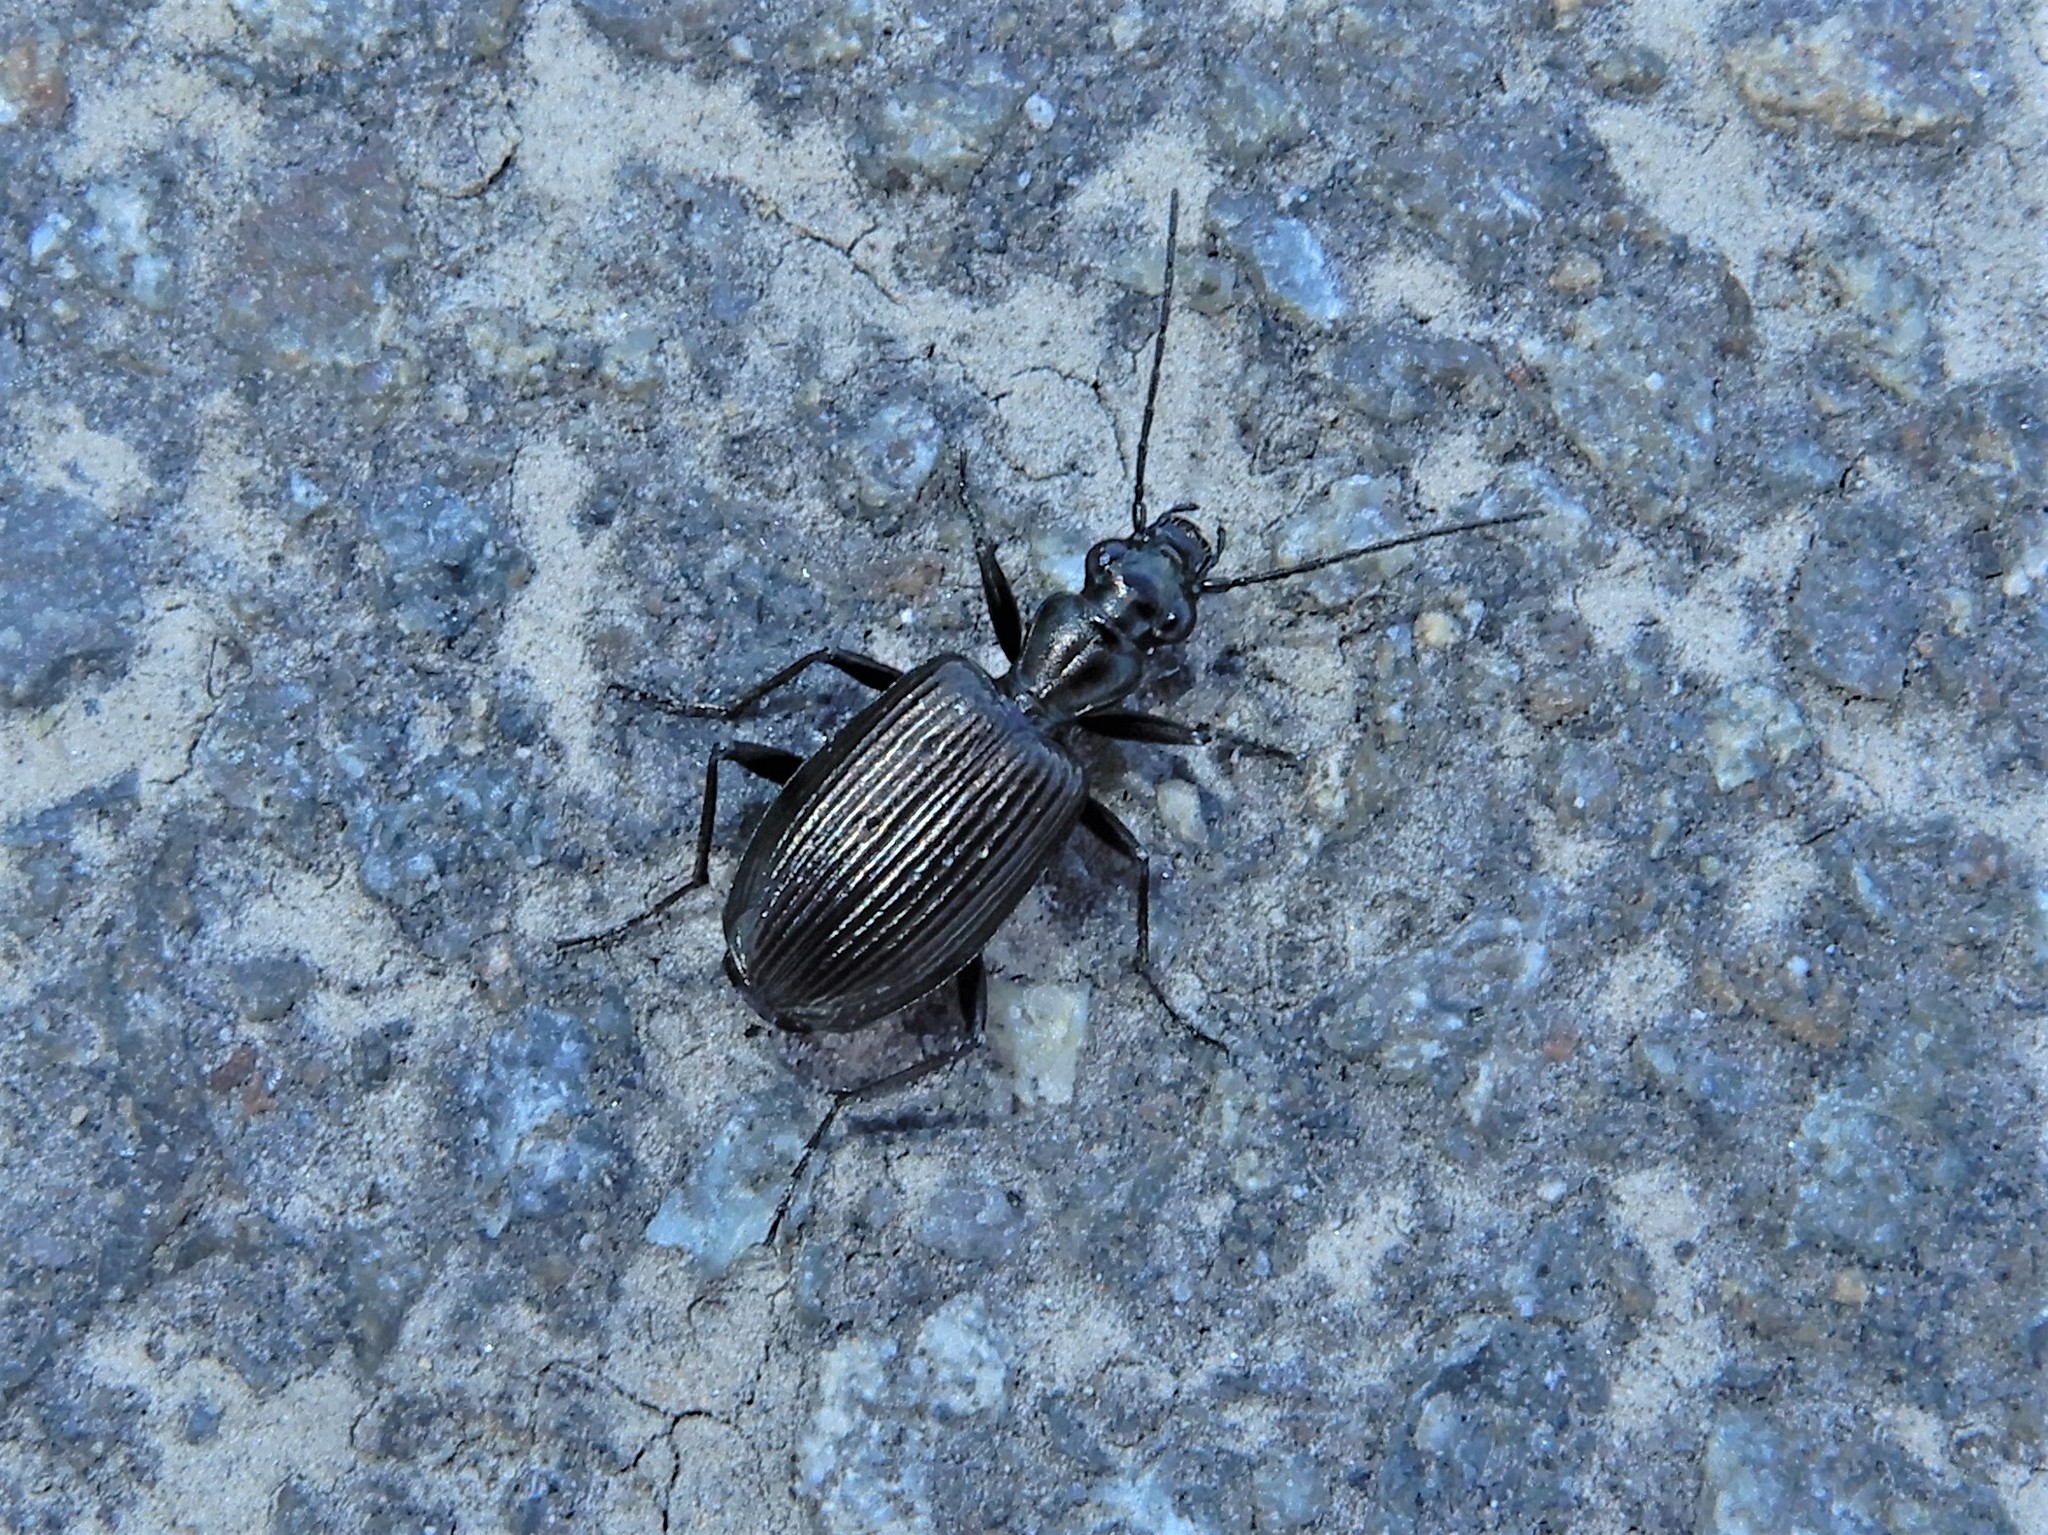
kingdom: Animalia
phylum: Arthropoda
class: Insecta
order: Coleoptera
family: Carabidae
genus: Actenonyx
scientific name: Actenonyx bembidioides
